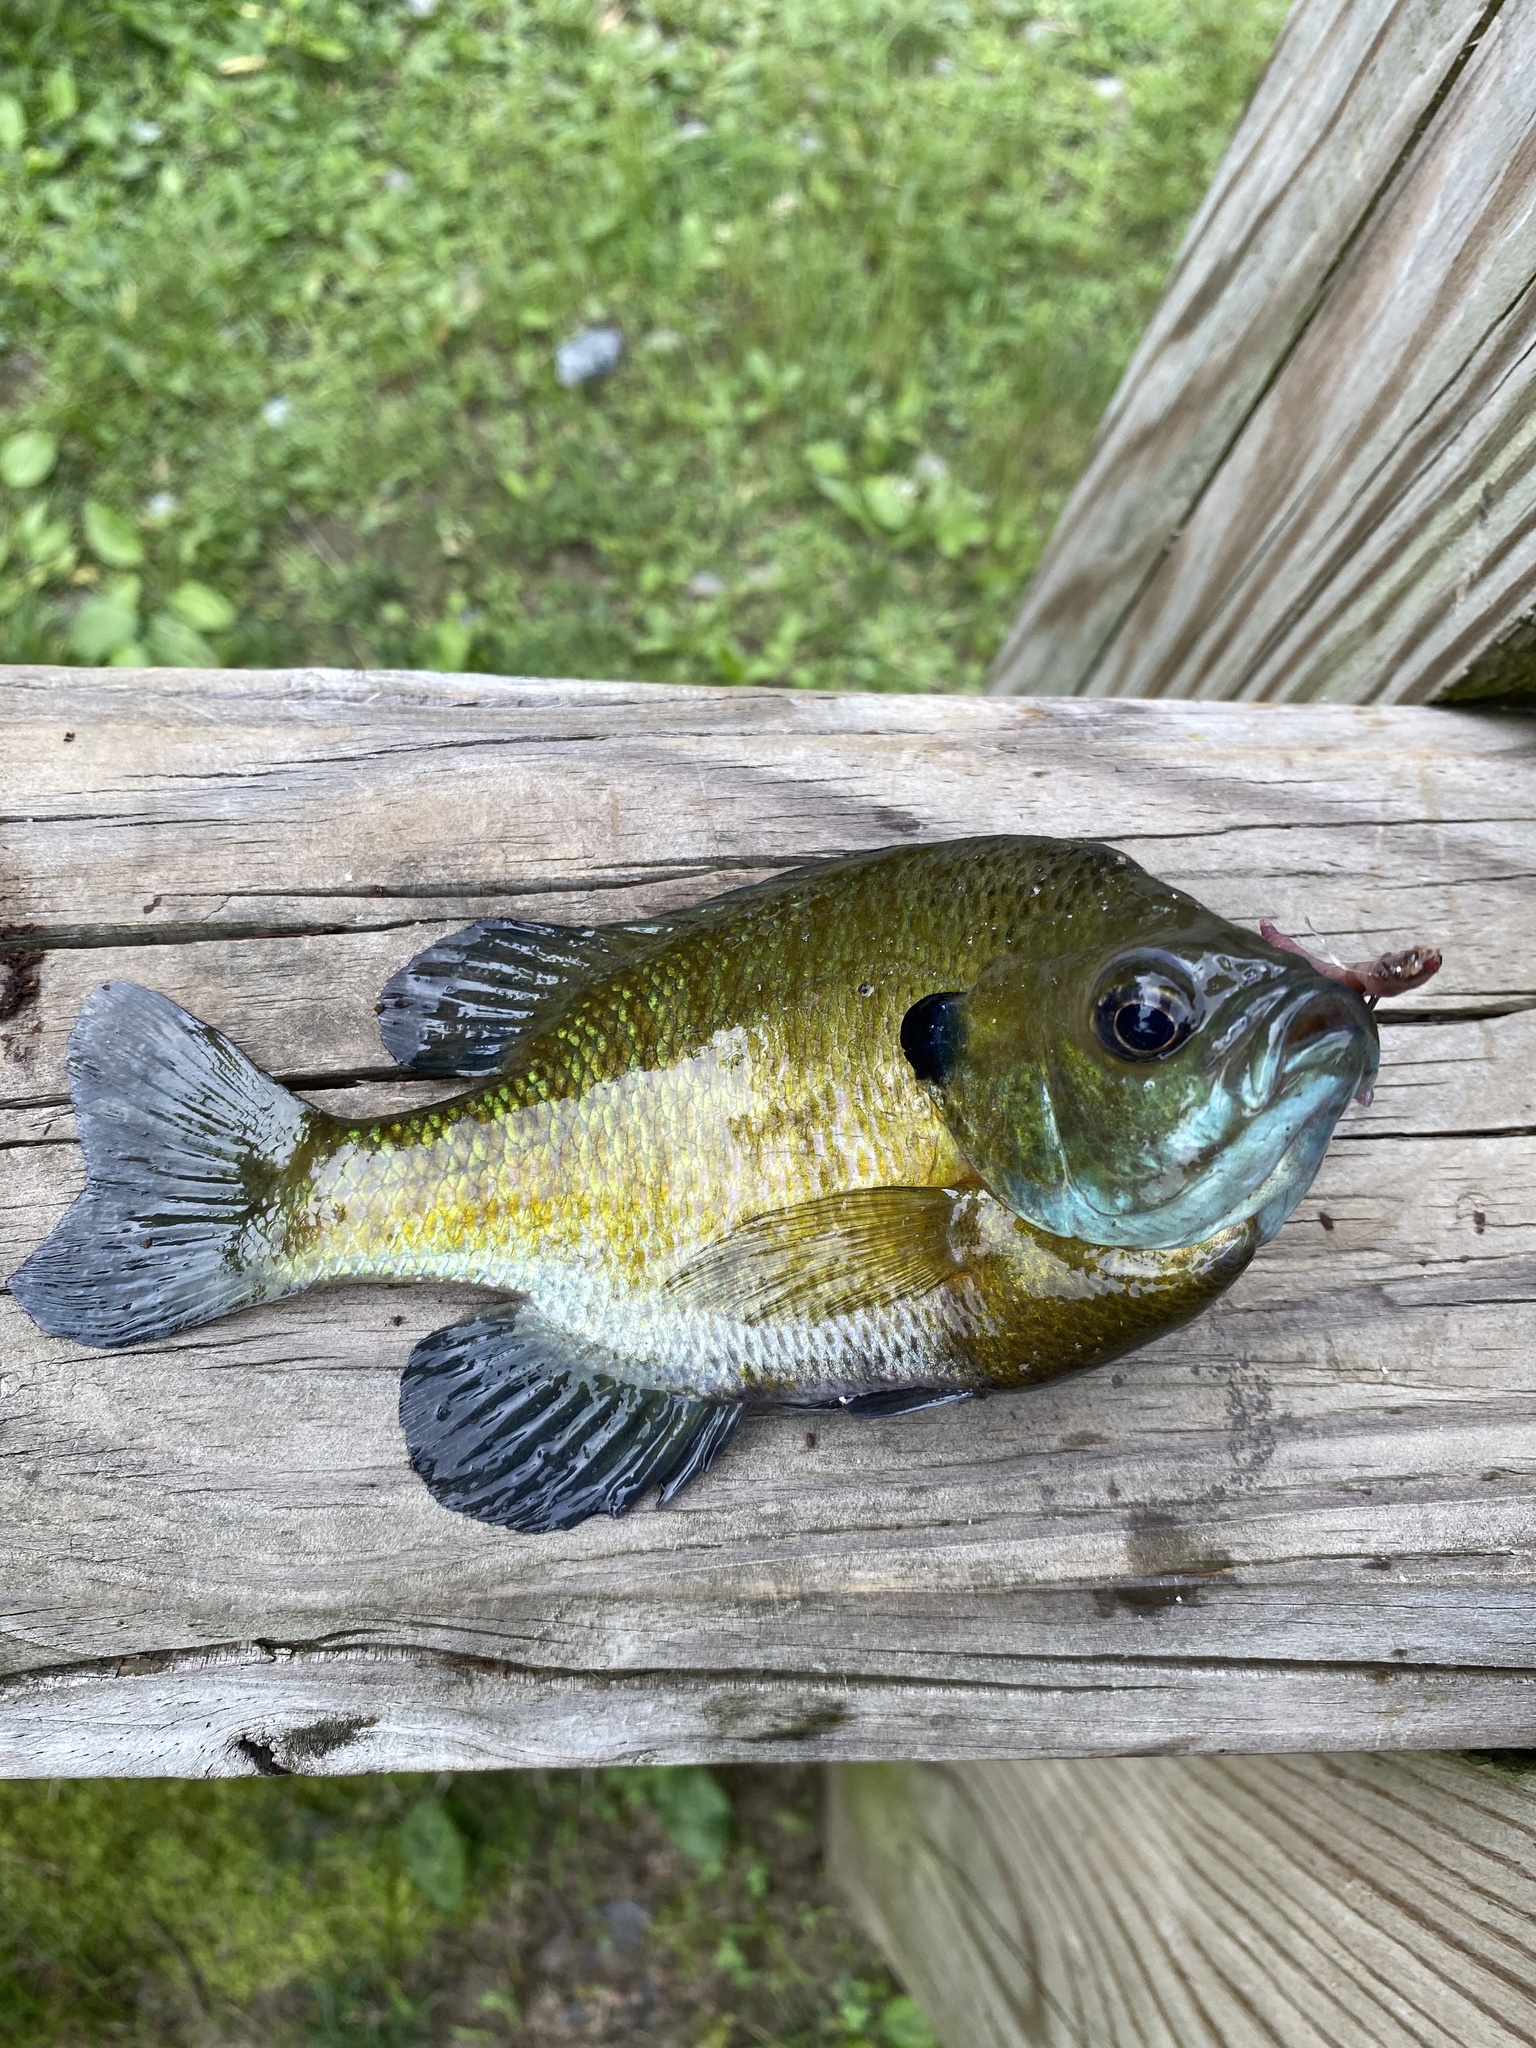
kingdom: Animalia
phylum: Chordata
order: Perciformes
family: Centrarchidae
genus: Lepomis
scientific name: Lepomis macrochirus
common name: Bluegill
